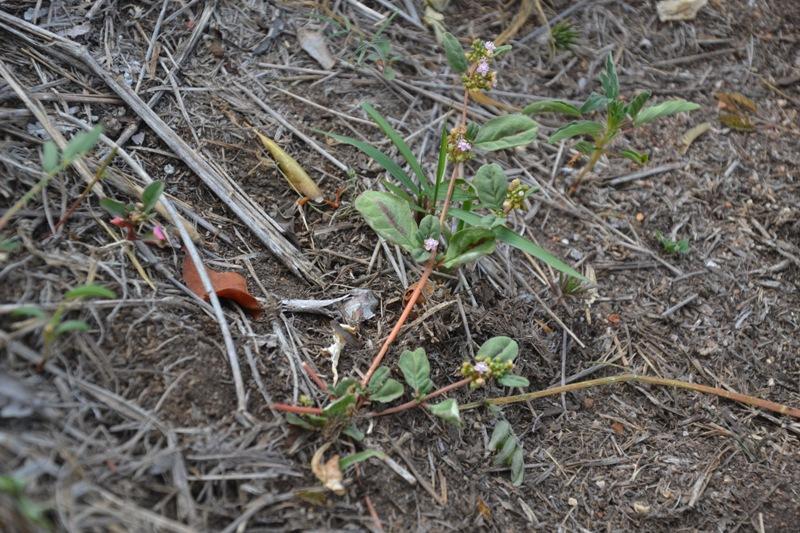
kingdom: Plantae
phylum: Tracheophyta
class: Magnoliopsida
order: Caryophyllales
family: Gisekiaceae
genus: Gisekia
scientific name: Gisekia africana
